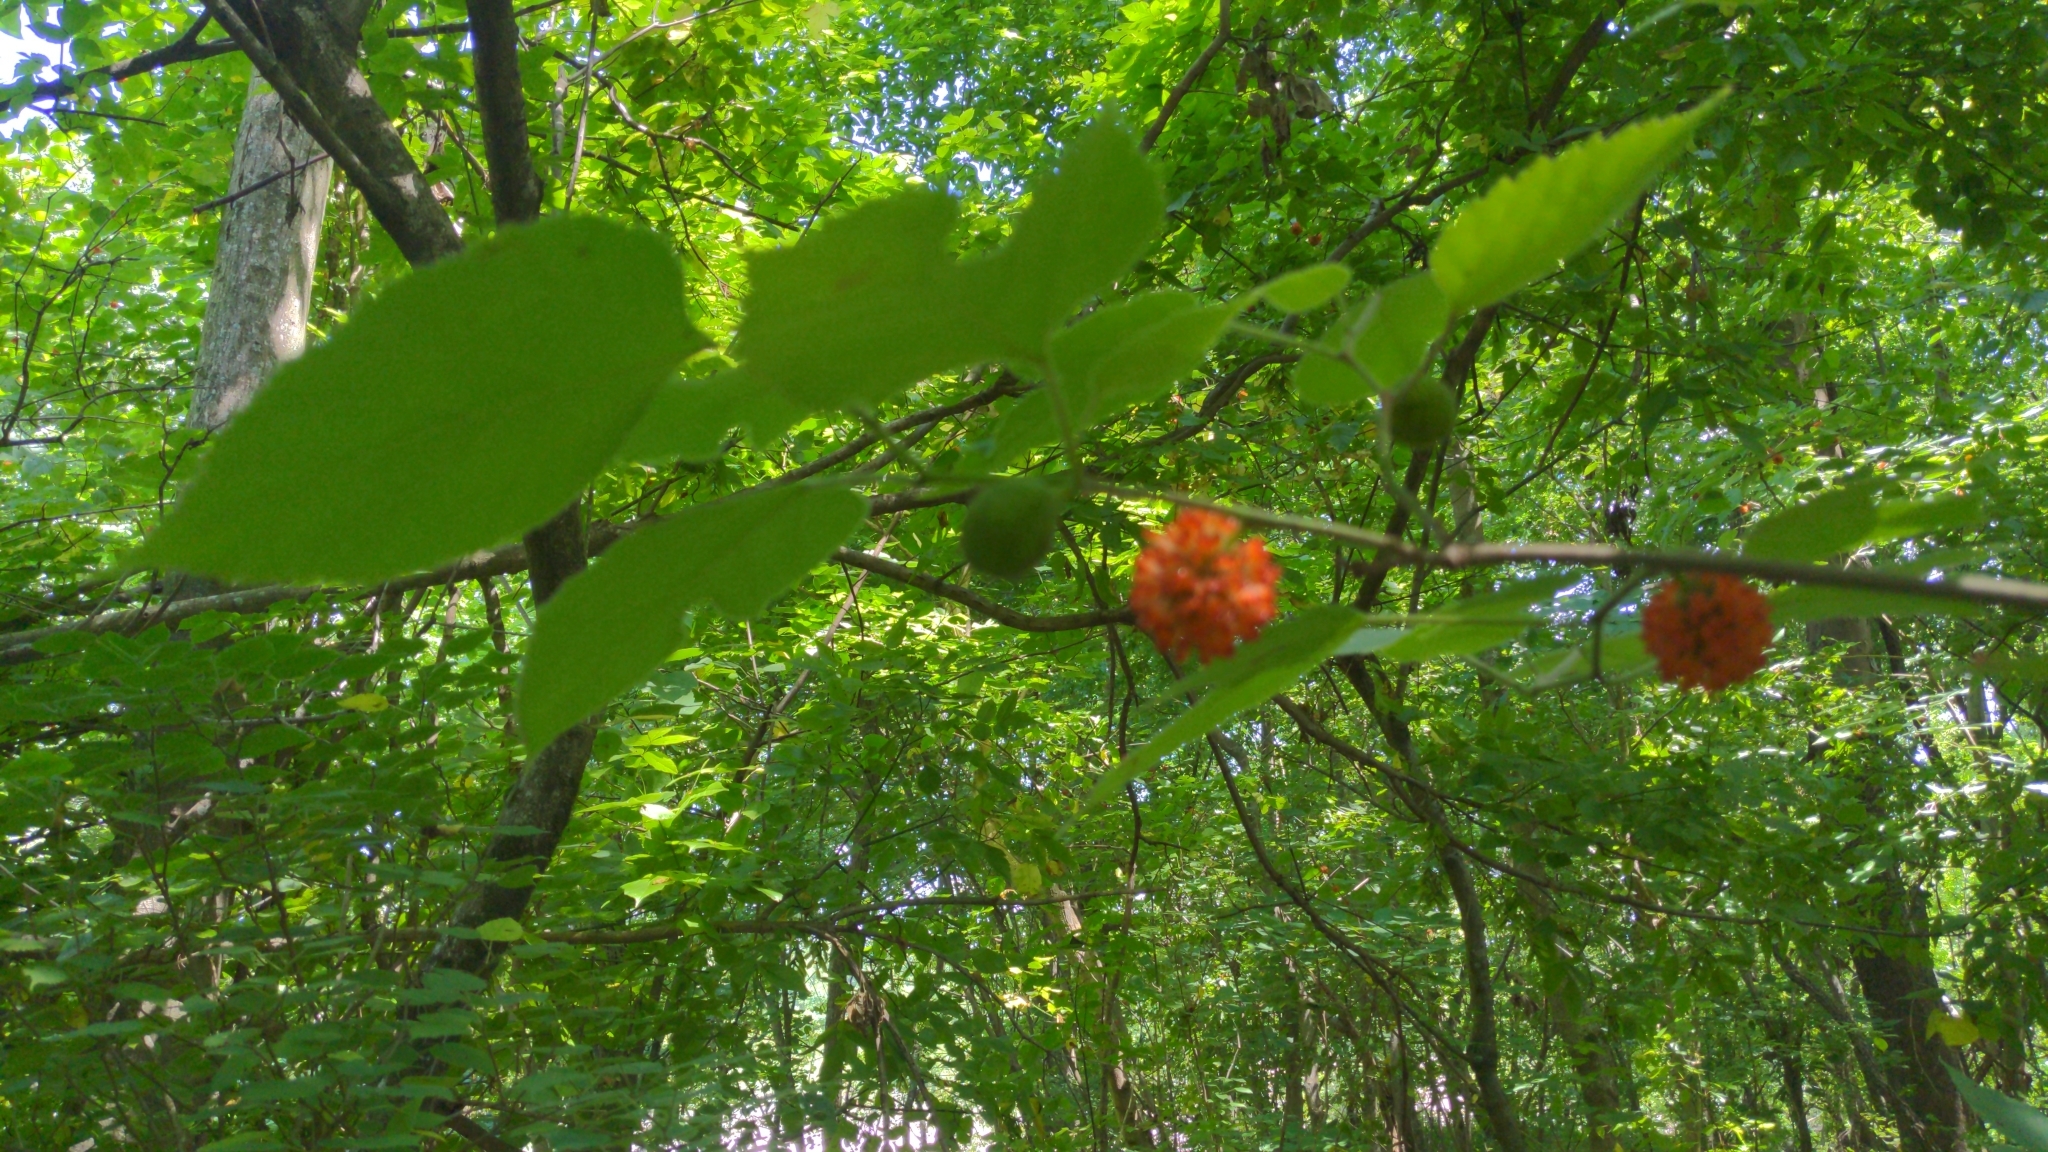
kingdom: Plantae
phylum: Tracheophyta
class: Magnoliopsida
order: Rosales
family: Moraceae
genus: Broussonetia
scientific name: Broussonetia papyrifera
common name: Paper mulberry
